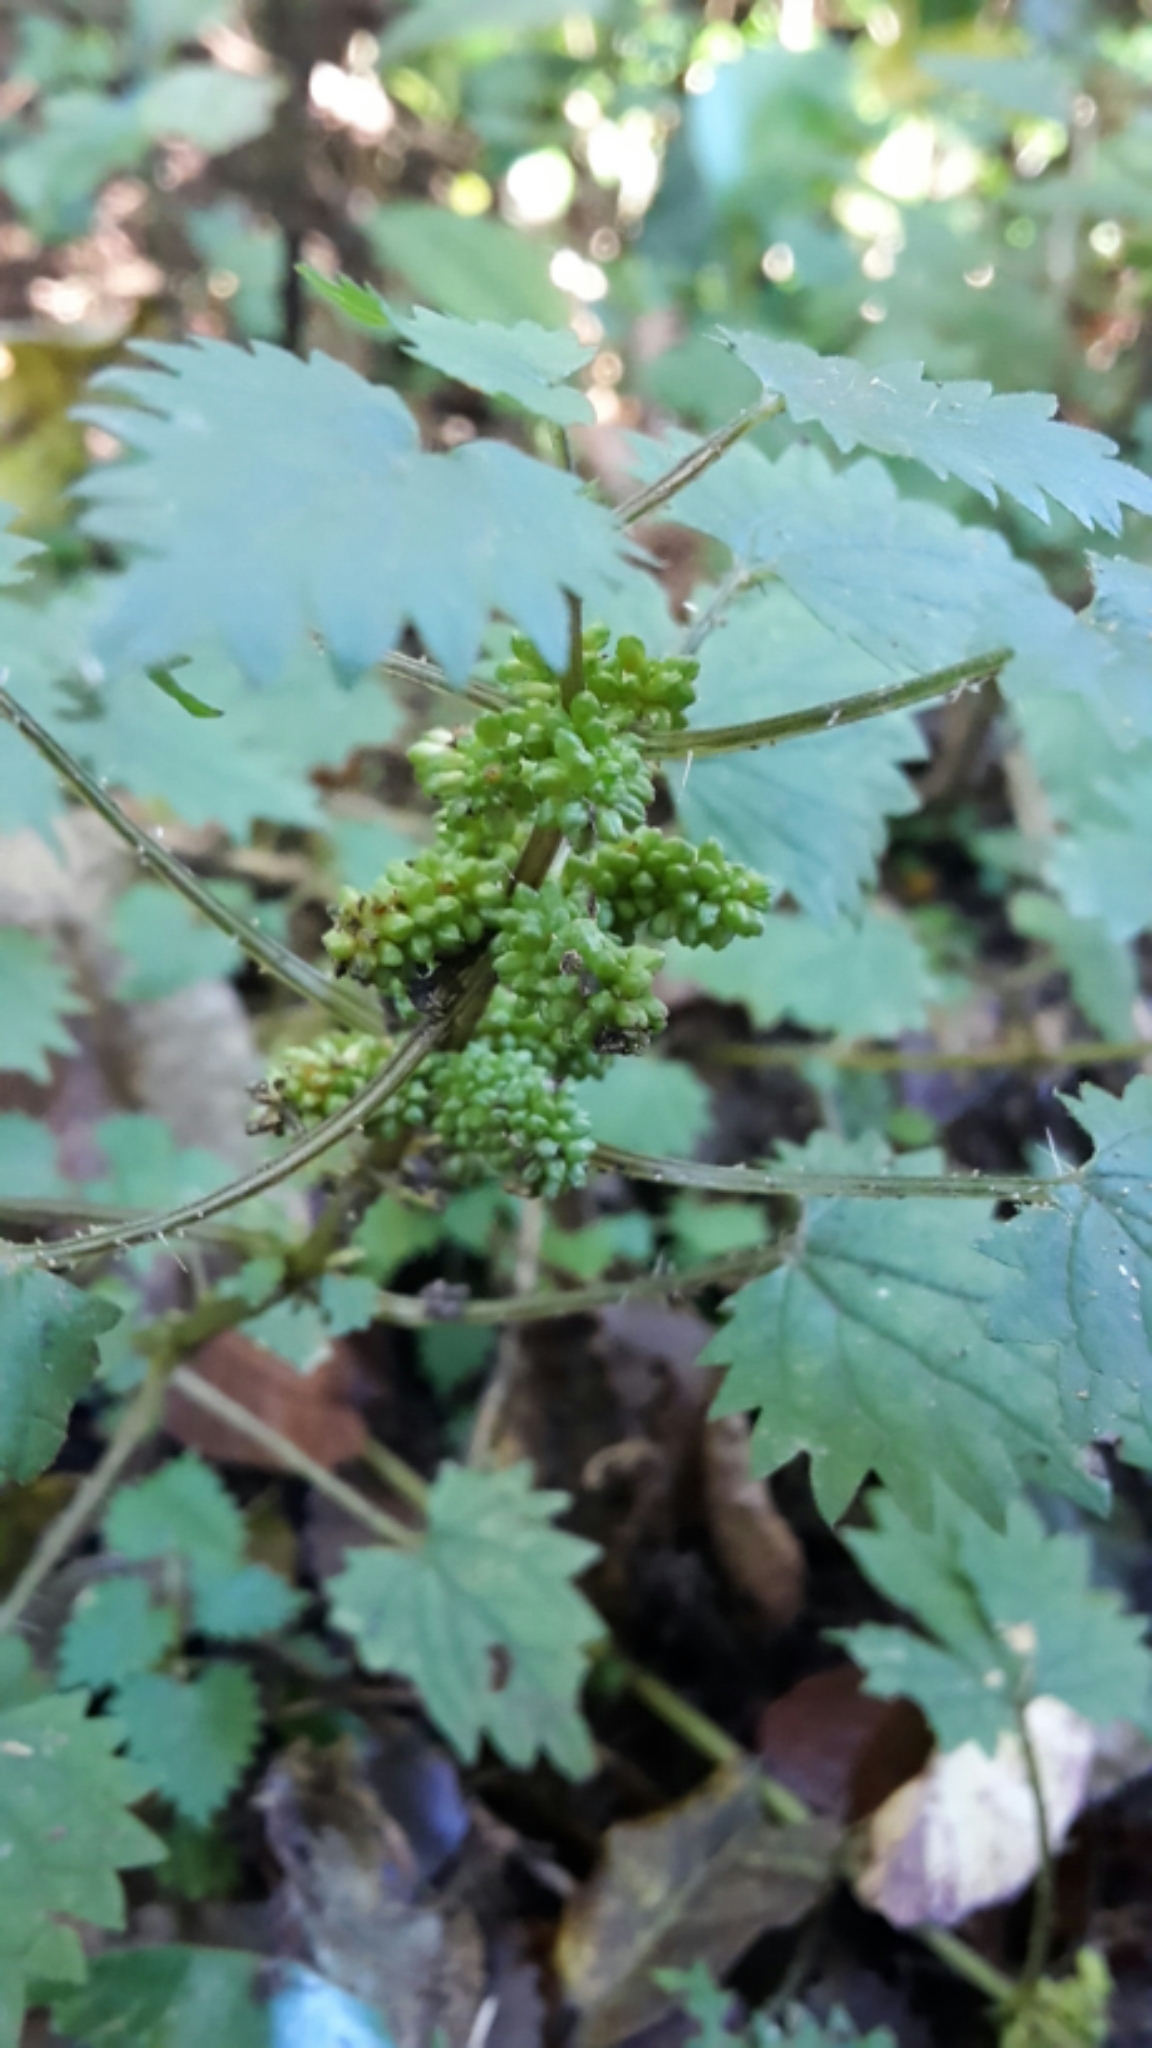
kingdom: Plantae
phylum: Tracheophyta
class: Magnoliopsida
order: Rosales
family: Urticaceae
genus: Urtica
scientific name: Urtica sykesii
